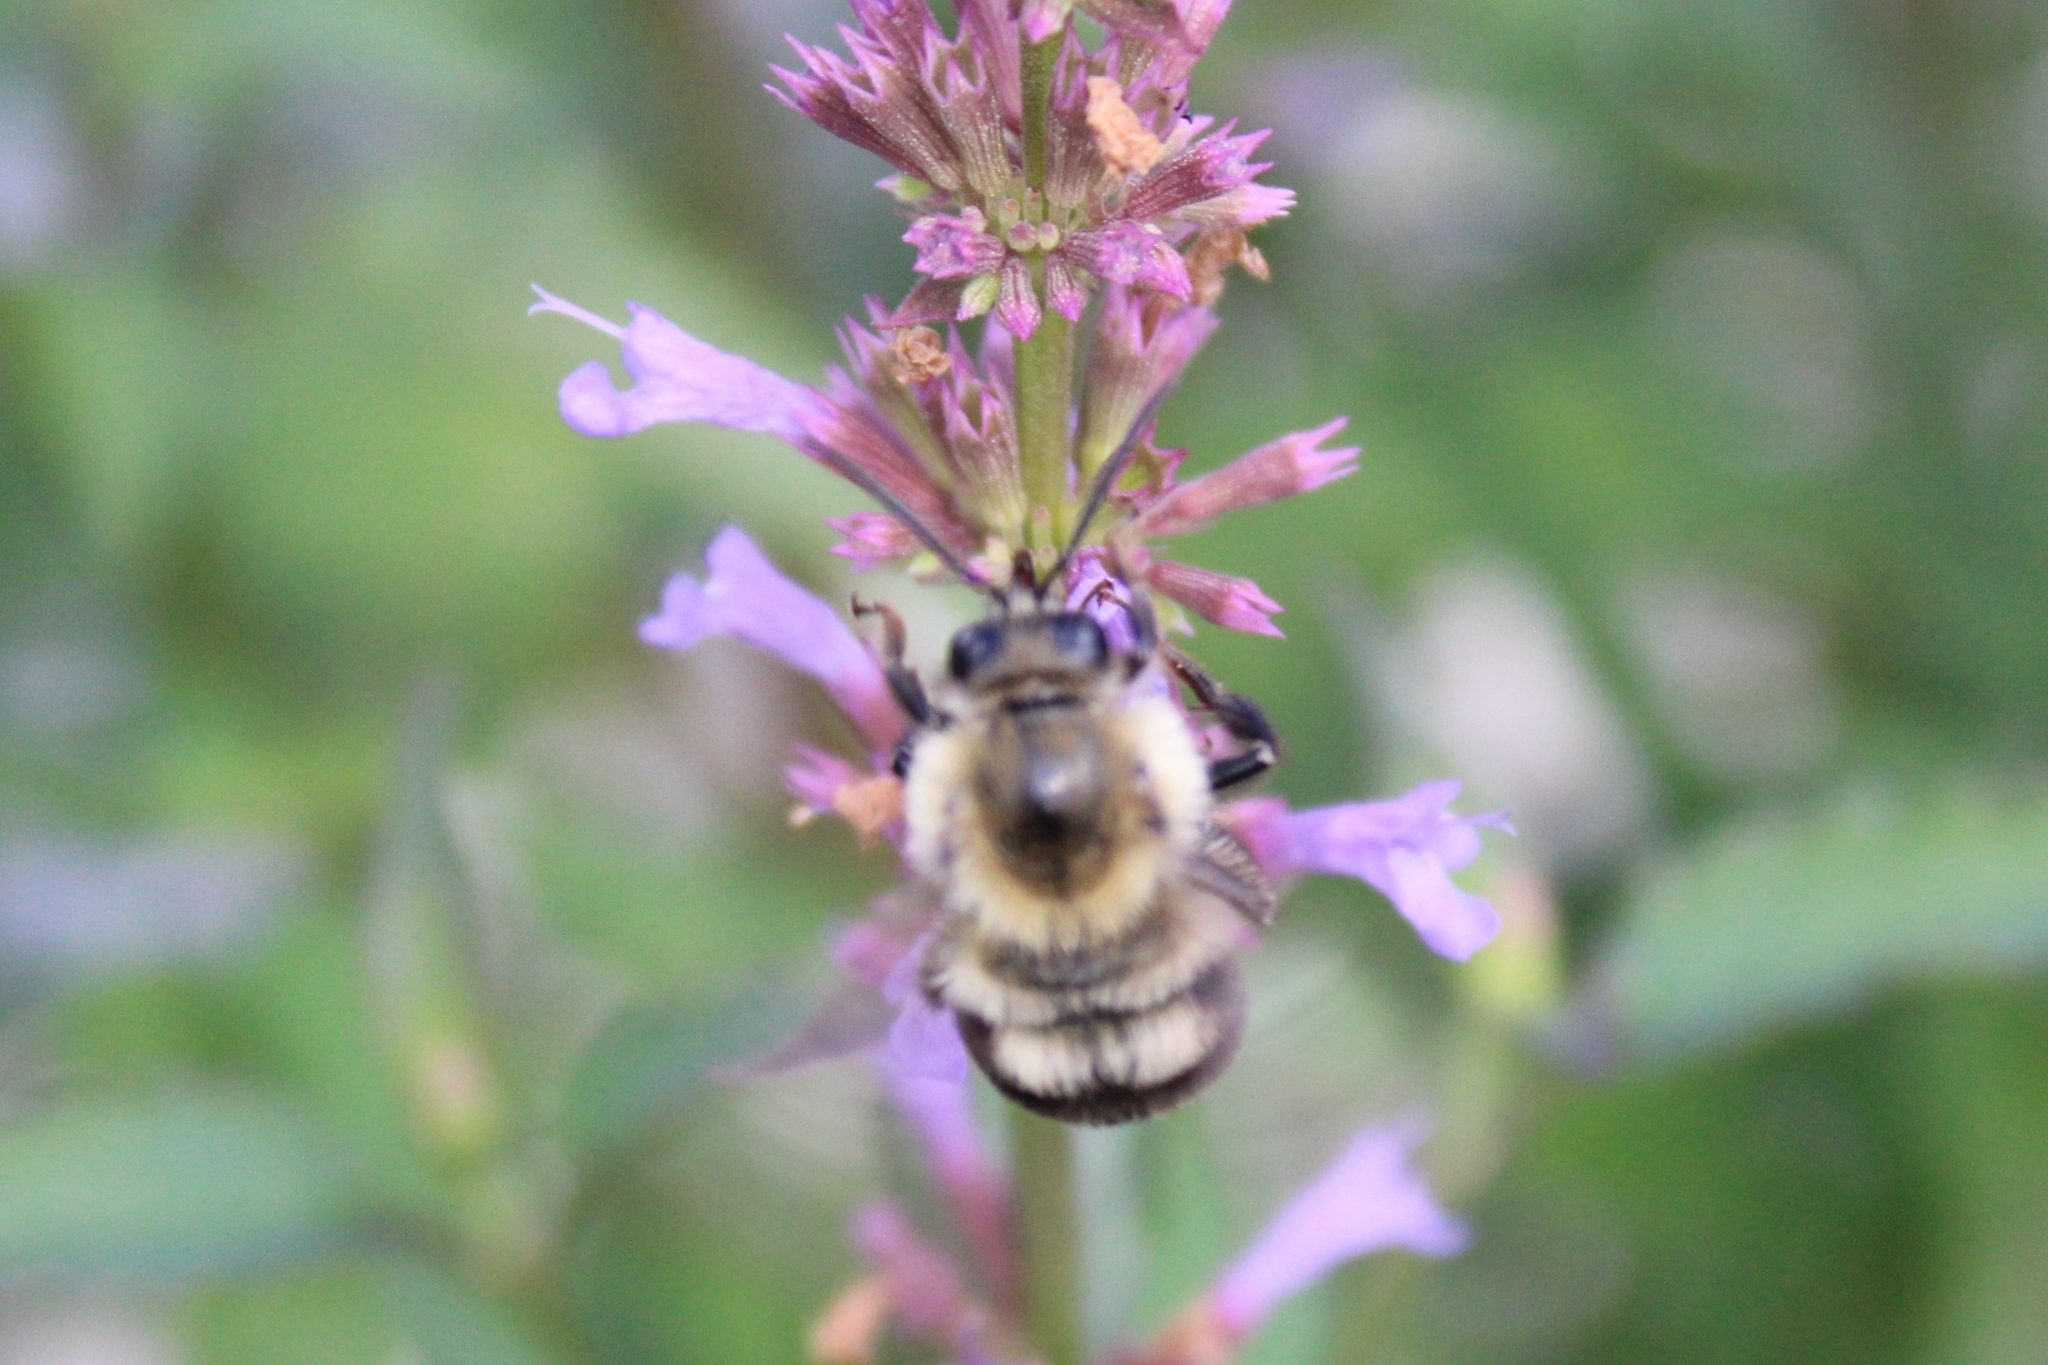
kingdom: Animalia
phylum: Arthropoda
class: Insecta
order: Hymenoptera
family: Apidae
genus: Bombus
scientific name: Bombus bimaculatus
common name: Two-spotted bumble bee
